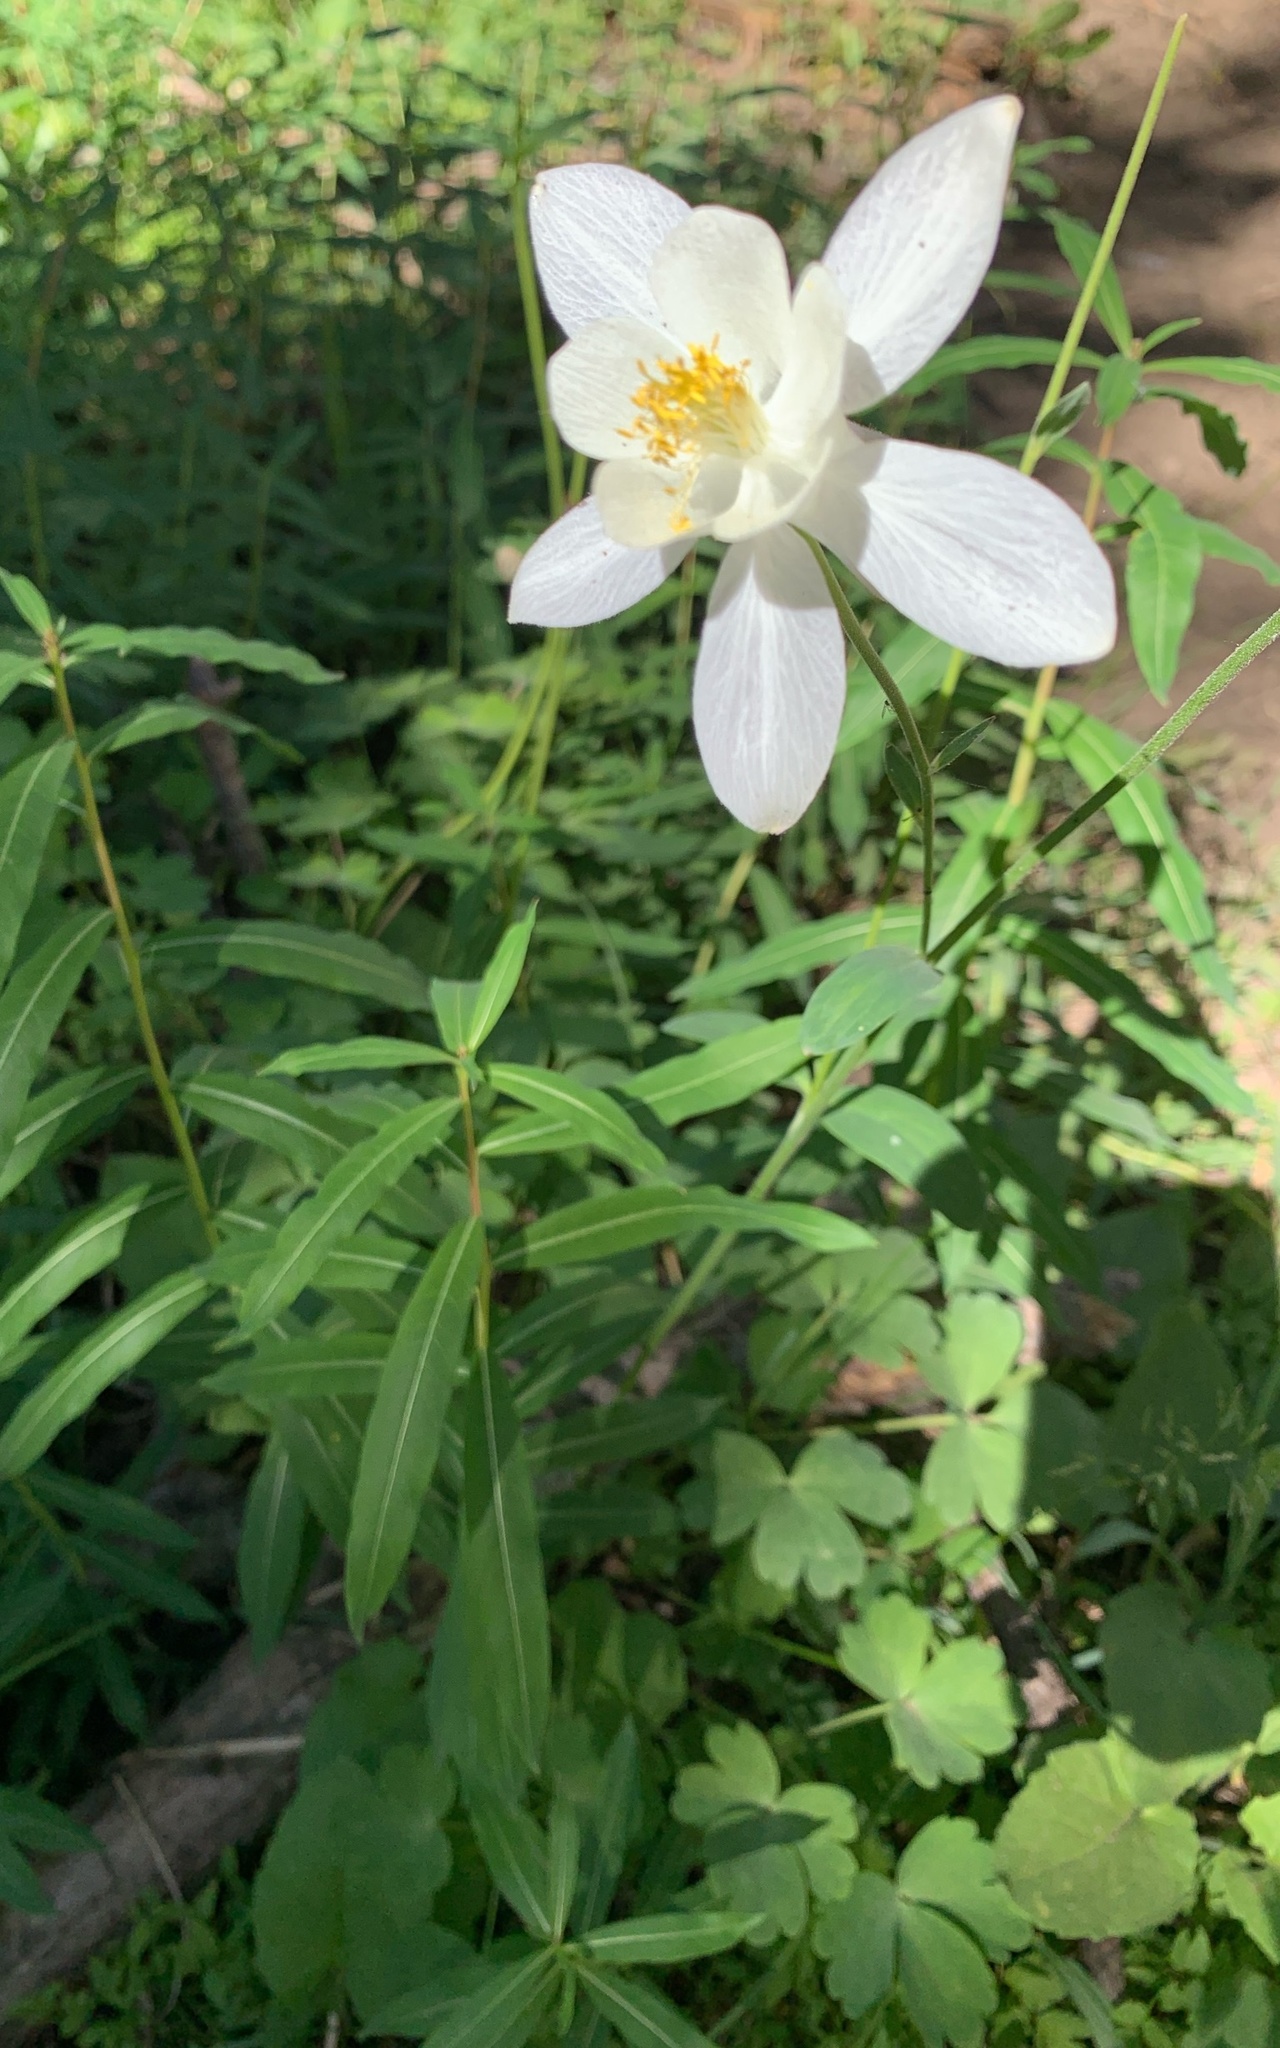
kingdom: Plantae
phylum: Tracheophyta
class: Magnoliopsida
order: Ranunculales
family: Ranunculaceae
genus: Aquilegia
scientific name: Aquilegia coerulea
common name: Rocky mountain columbine
